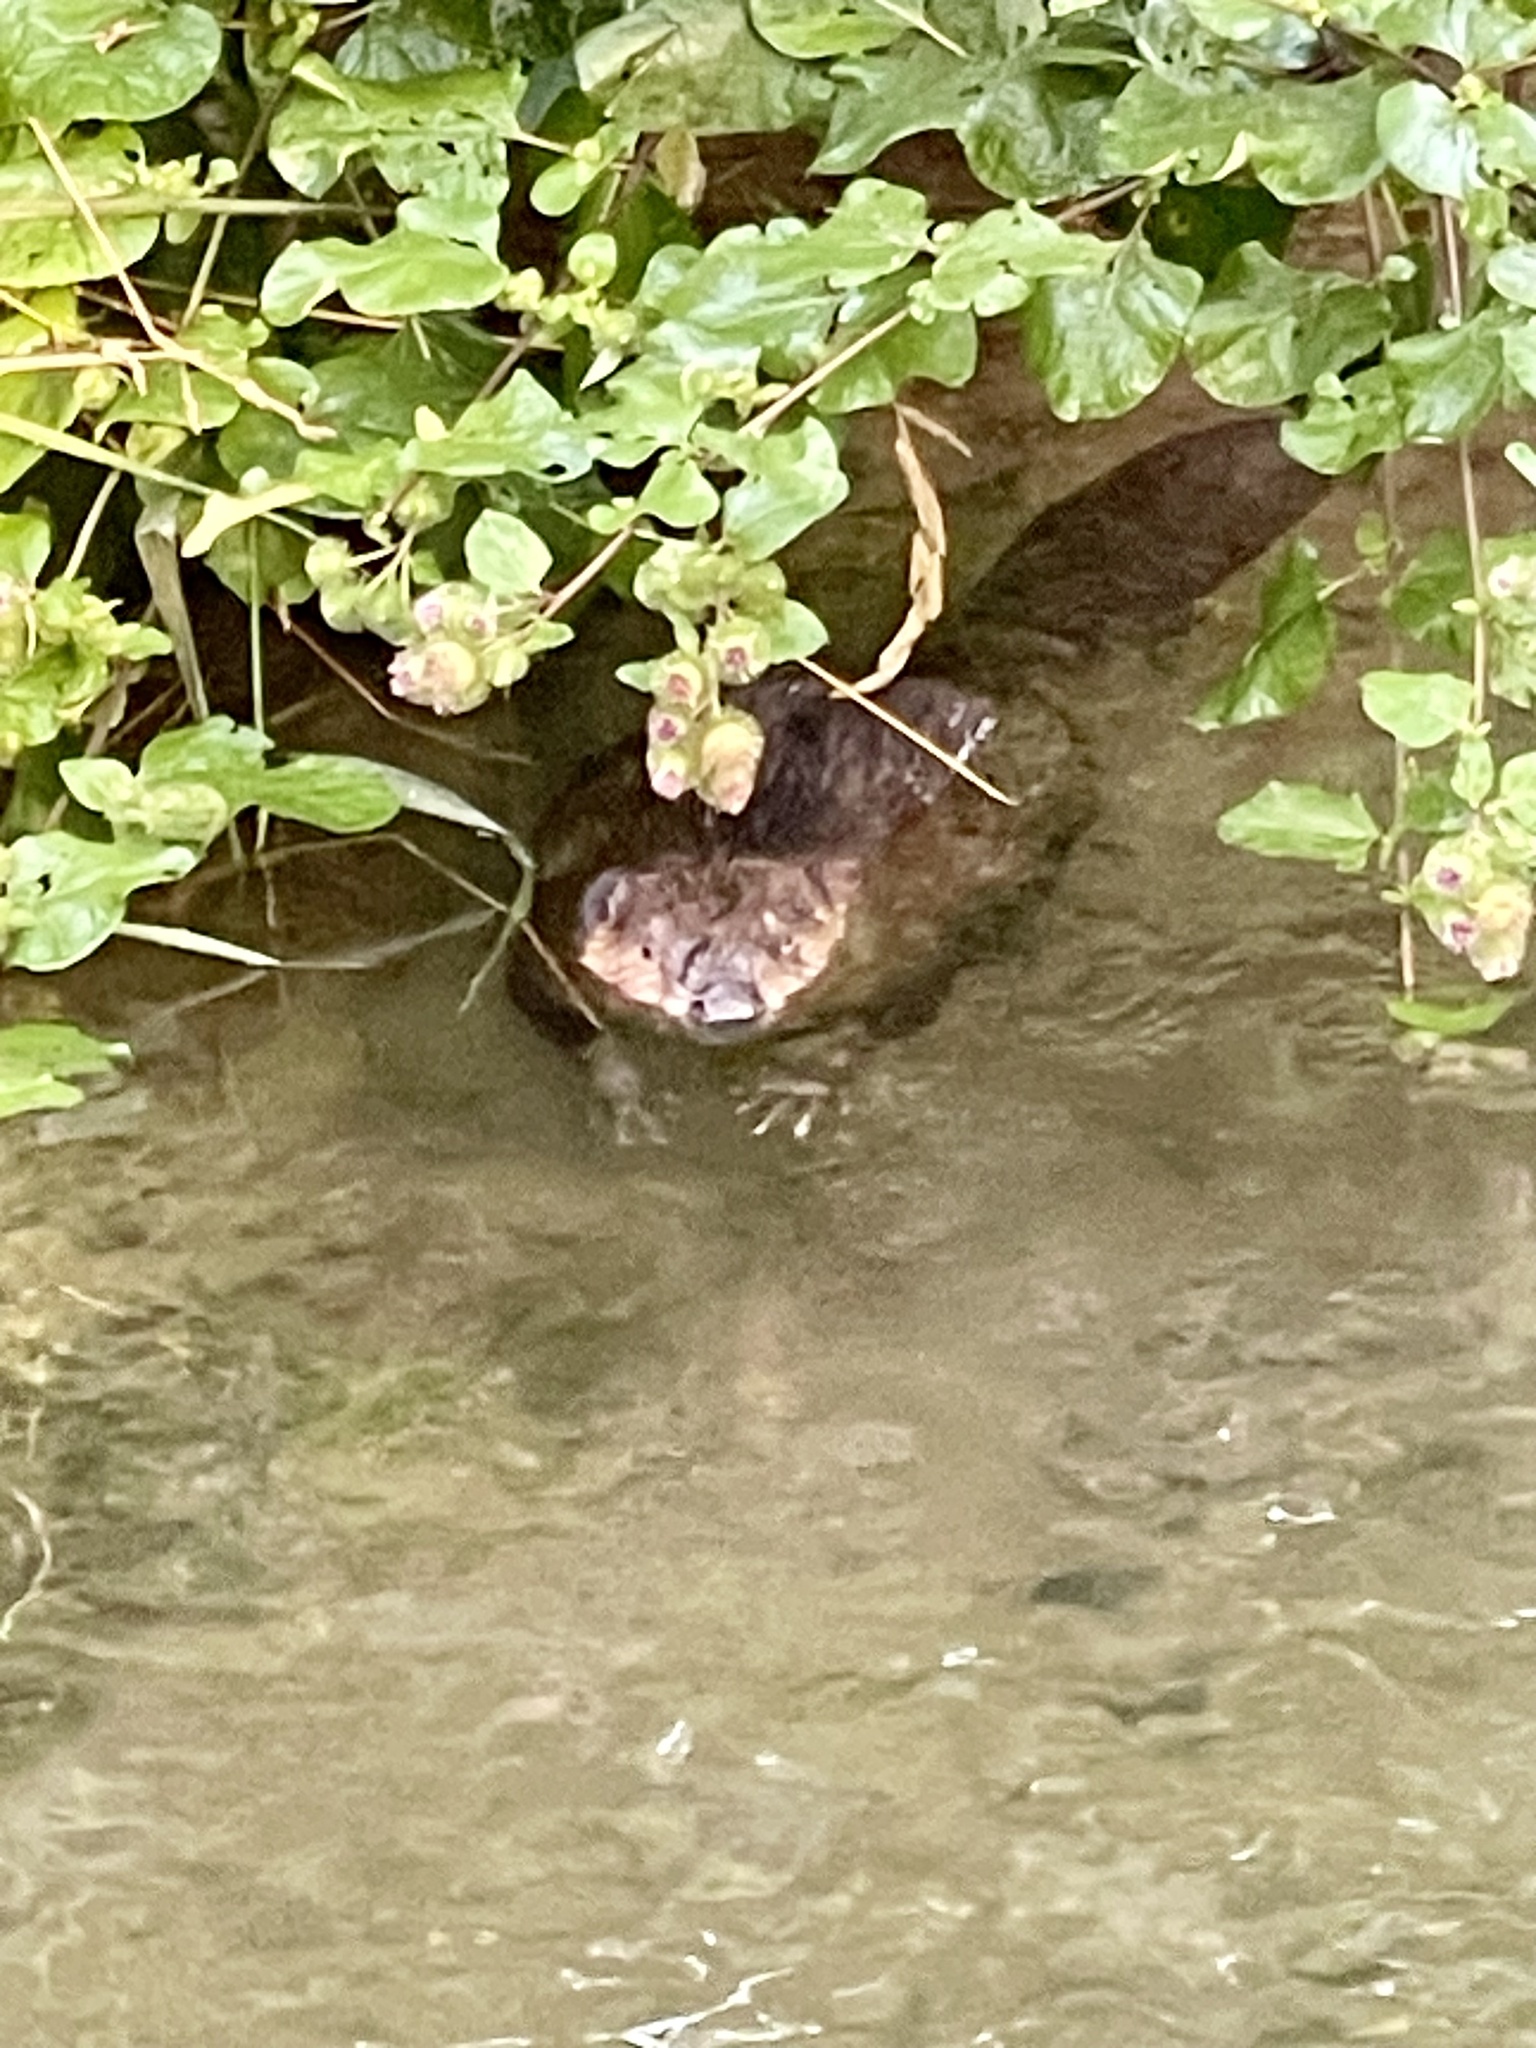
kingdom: Animalia
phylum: Chordata
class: Mammalia
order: Rodentia
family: Castoridae
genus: Castor
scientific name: Castor canadensis
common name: American beaver
